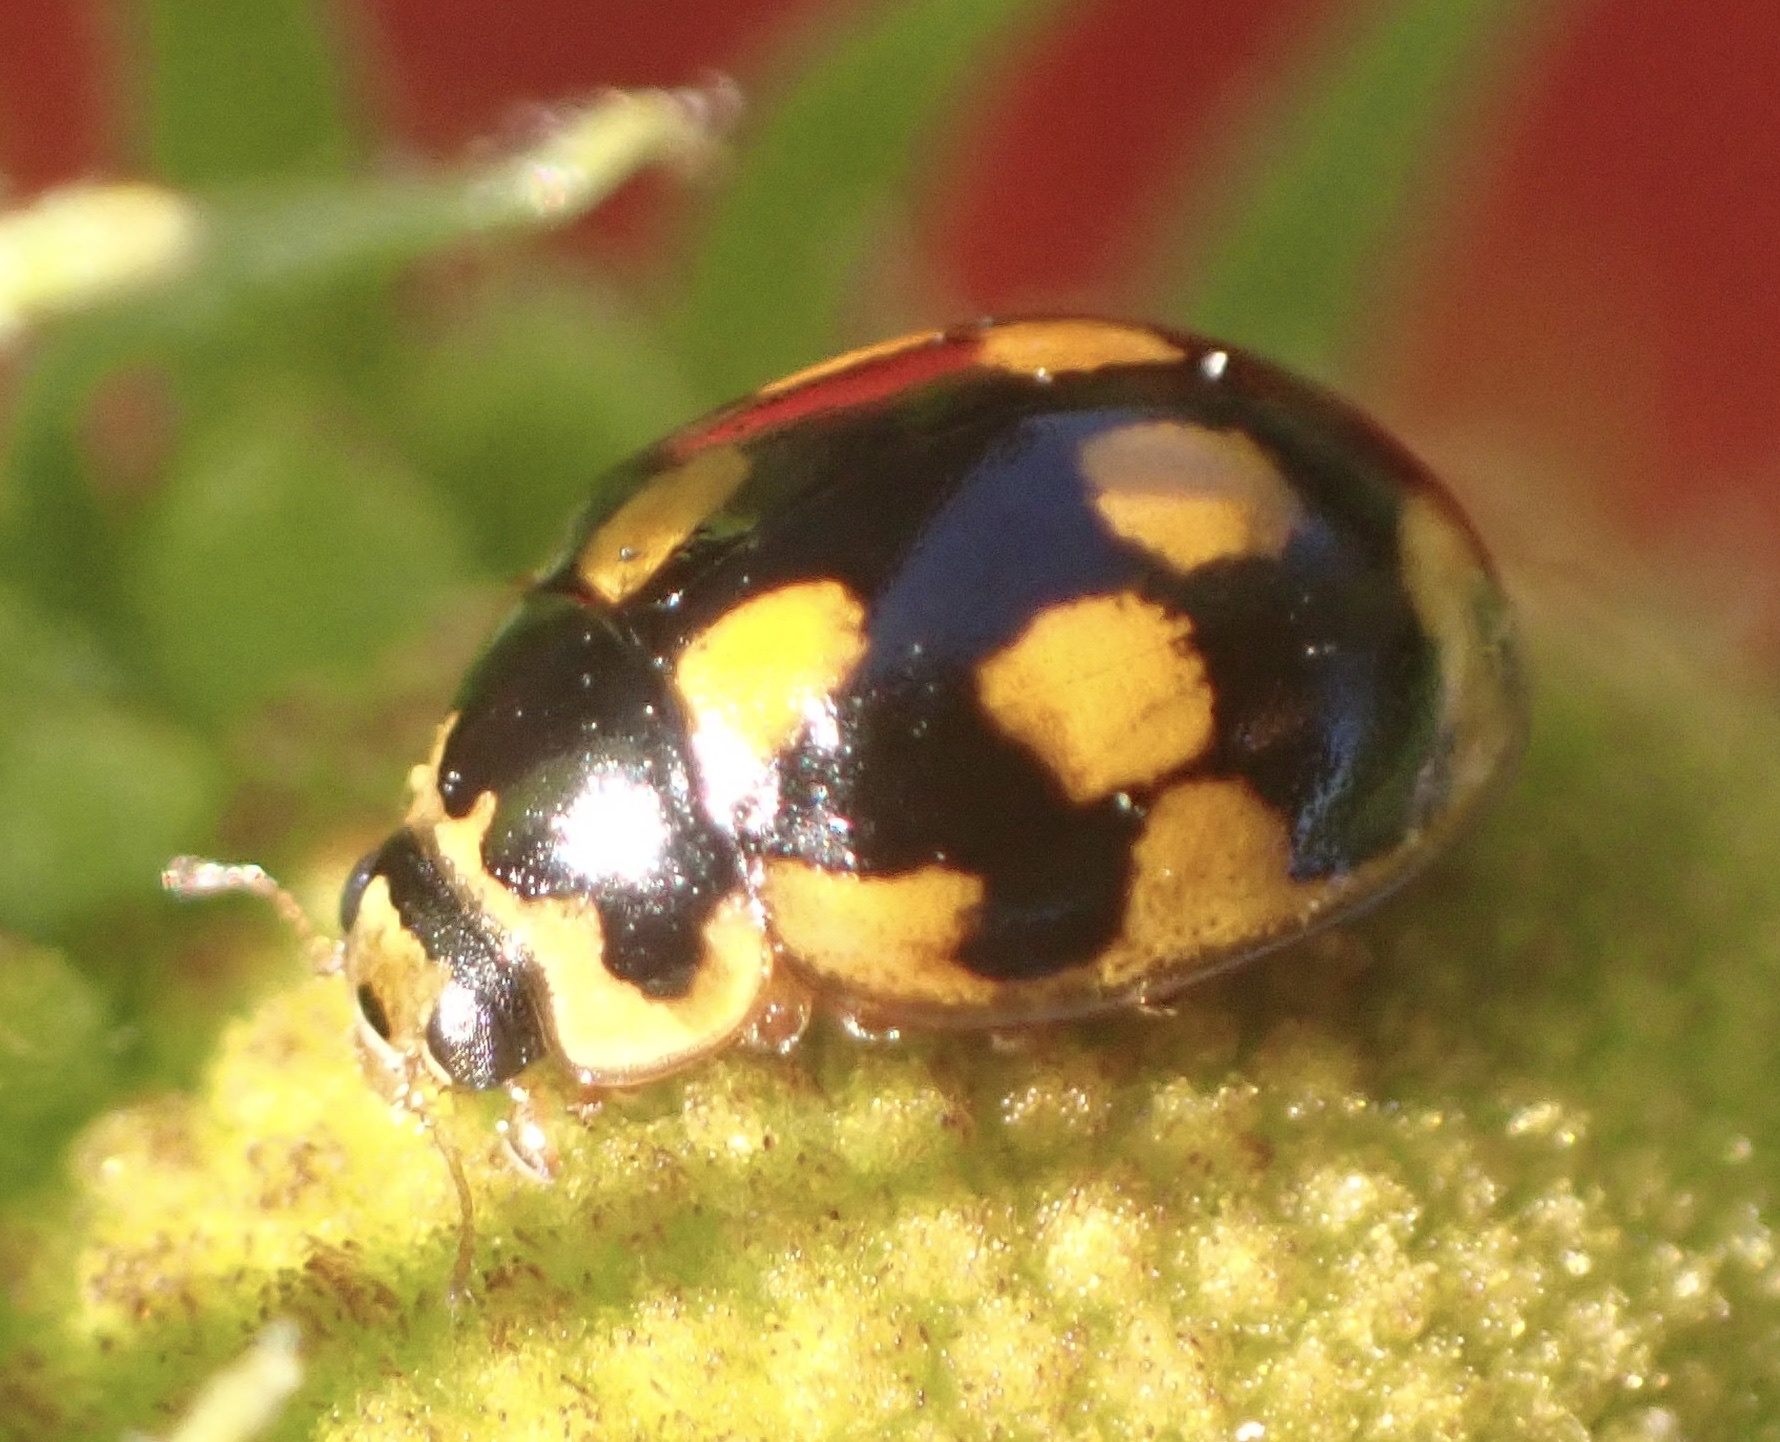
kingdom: Animalia
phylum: Arthropoda
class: Insecta
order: Coleoptera
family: Coccinellidae
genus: Propylaea
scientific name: Propylaea quatuordecimpunctata
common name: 14-spotted ladybird beetle
